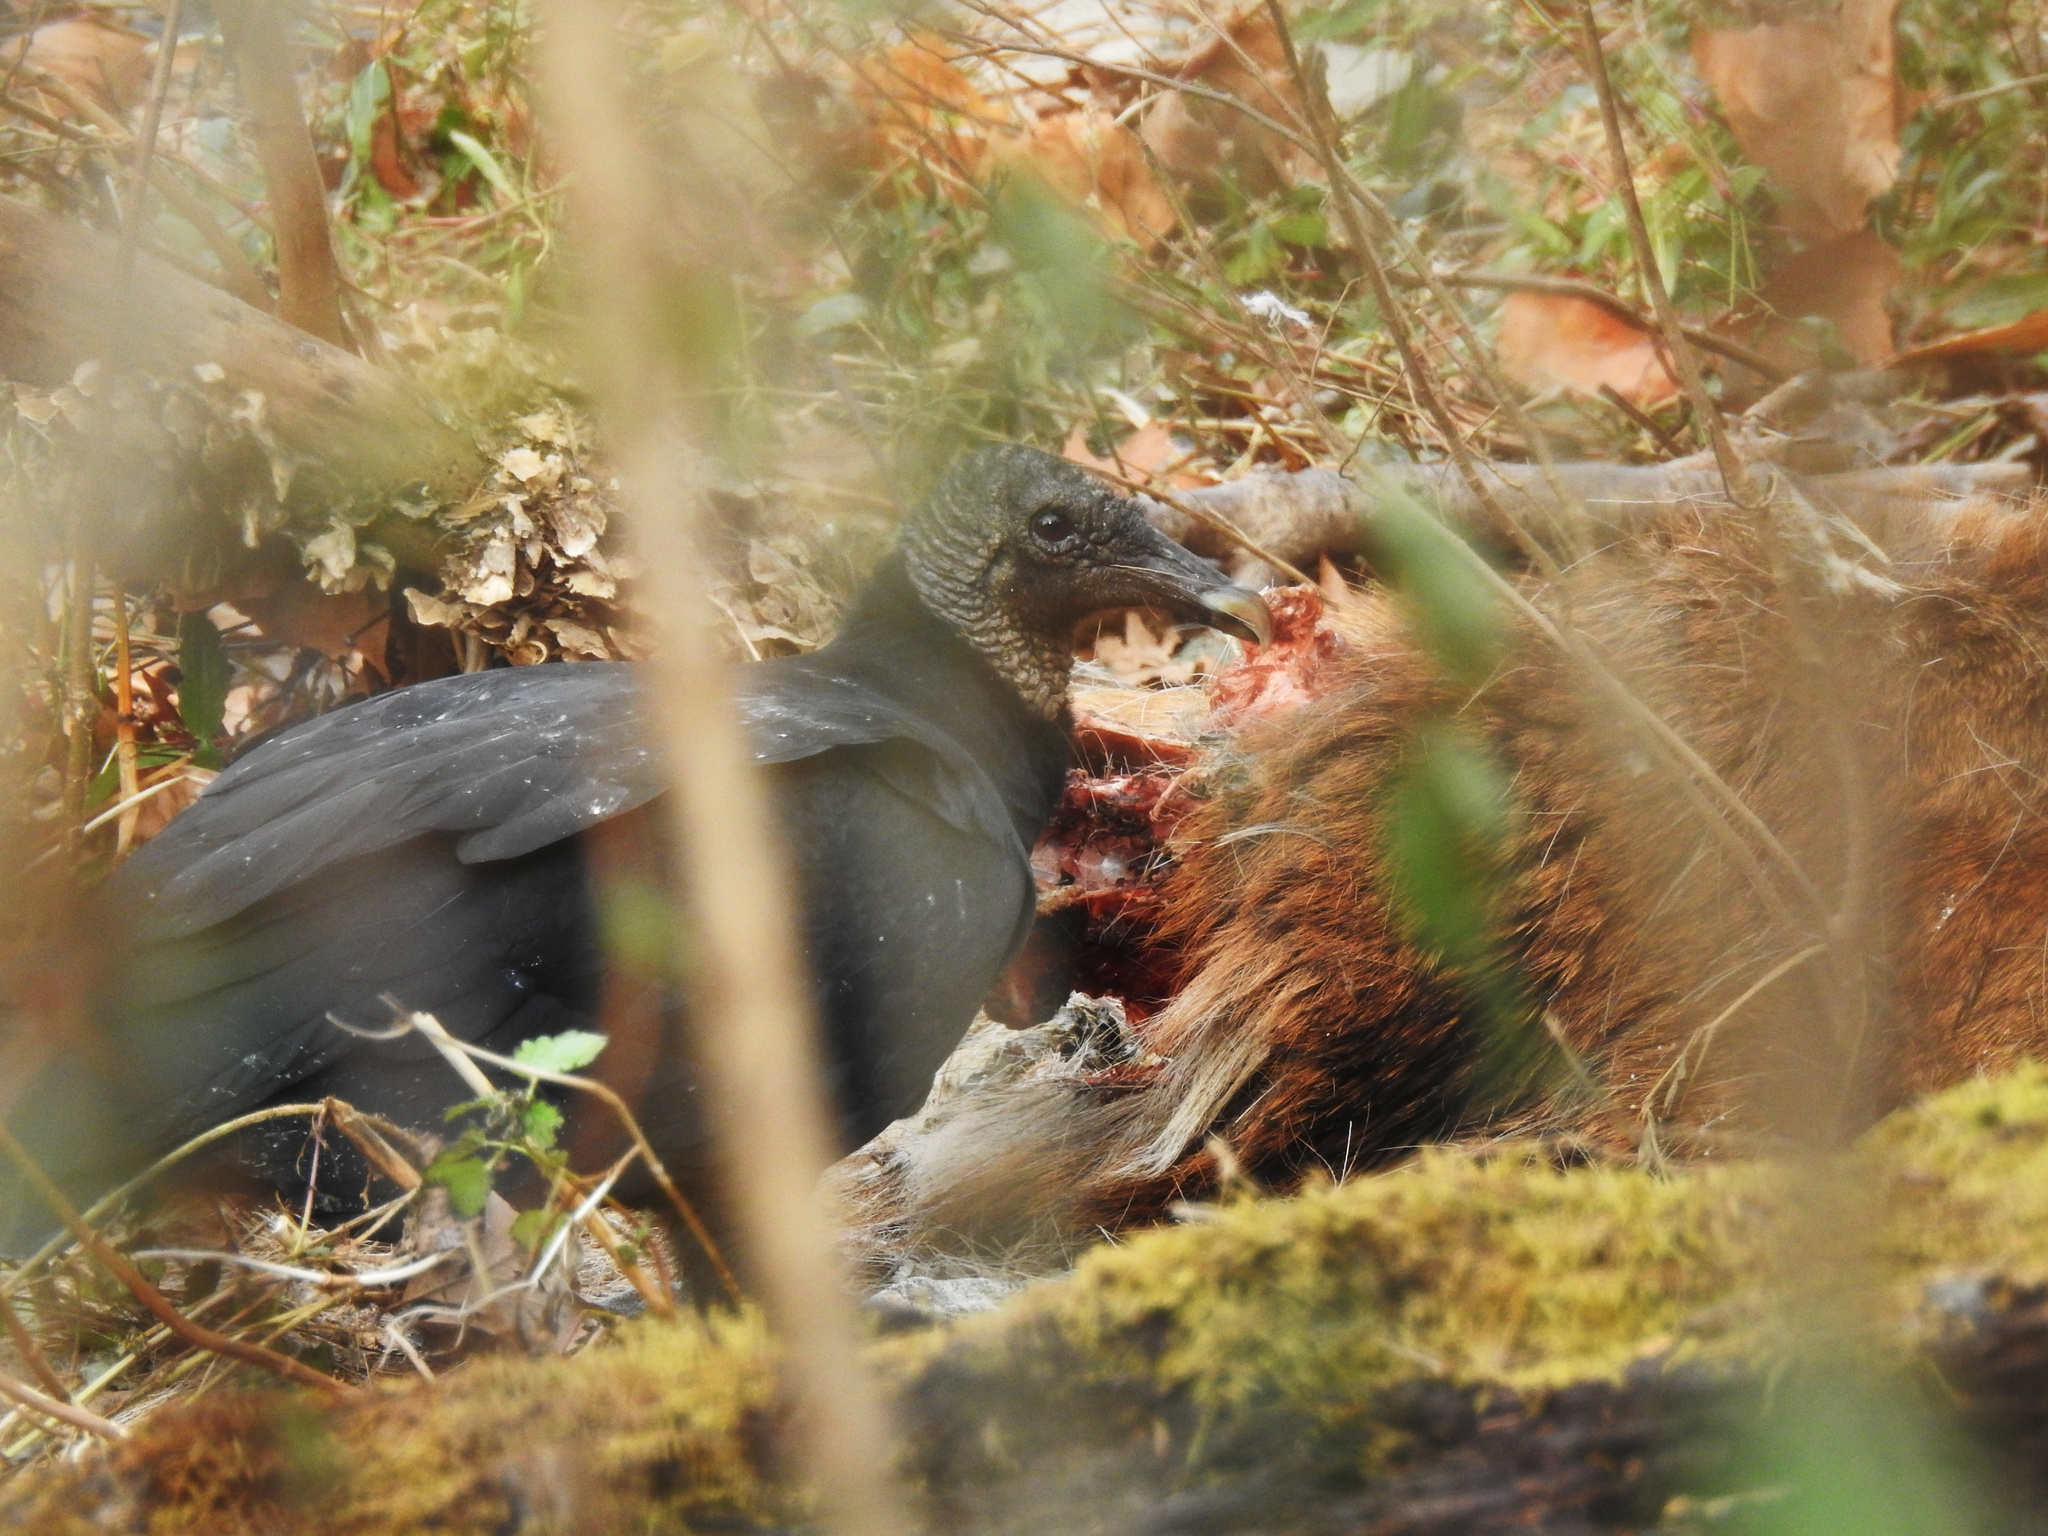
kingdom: Animalia
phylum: Chordata
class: Aves
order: Accipitriformes
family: Cathartidae
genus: Coragyps
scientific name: Coragyps atratus
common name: Black vulture
